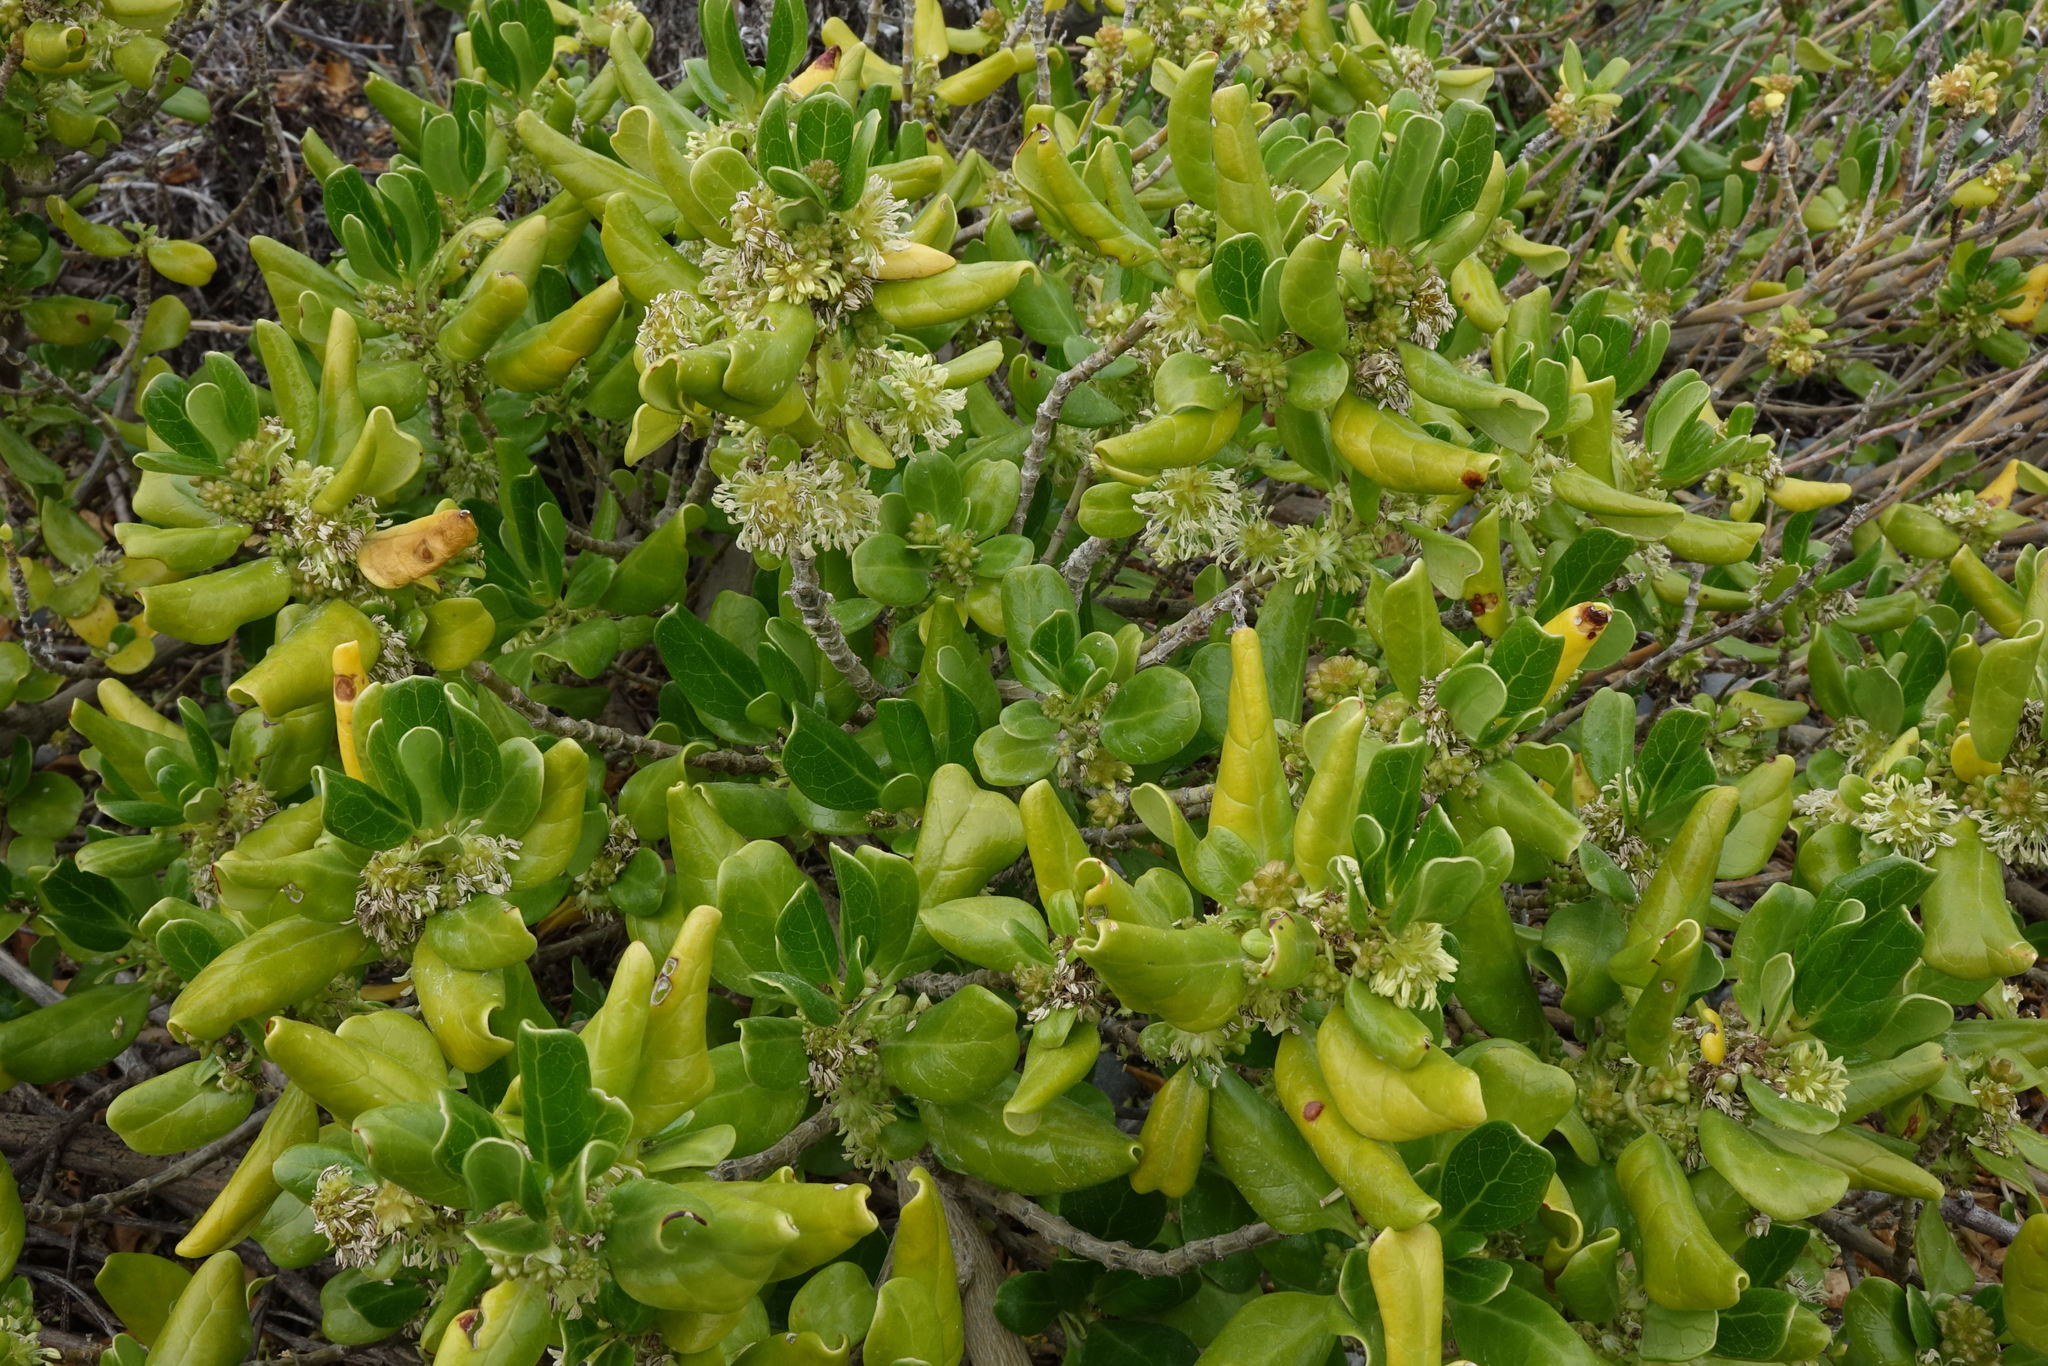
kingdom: Plantae
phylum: Tracheophyta
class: Magnoliopsida
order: Gentianales
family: Rubiaceae
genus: Coprosma
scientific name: Coprosma repens
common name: Tree bedstraw
